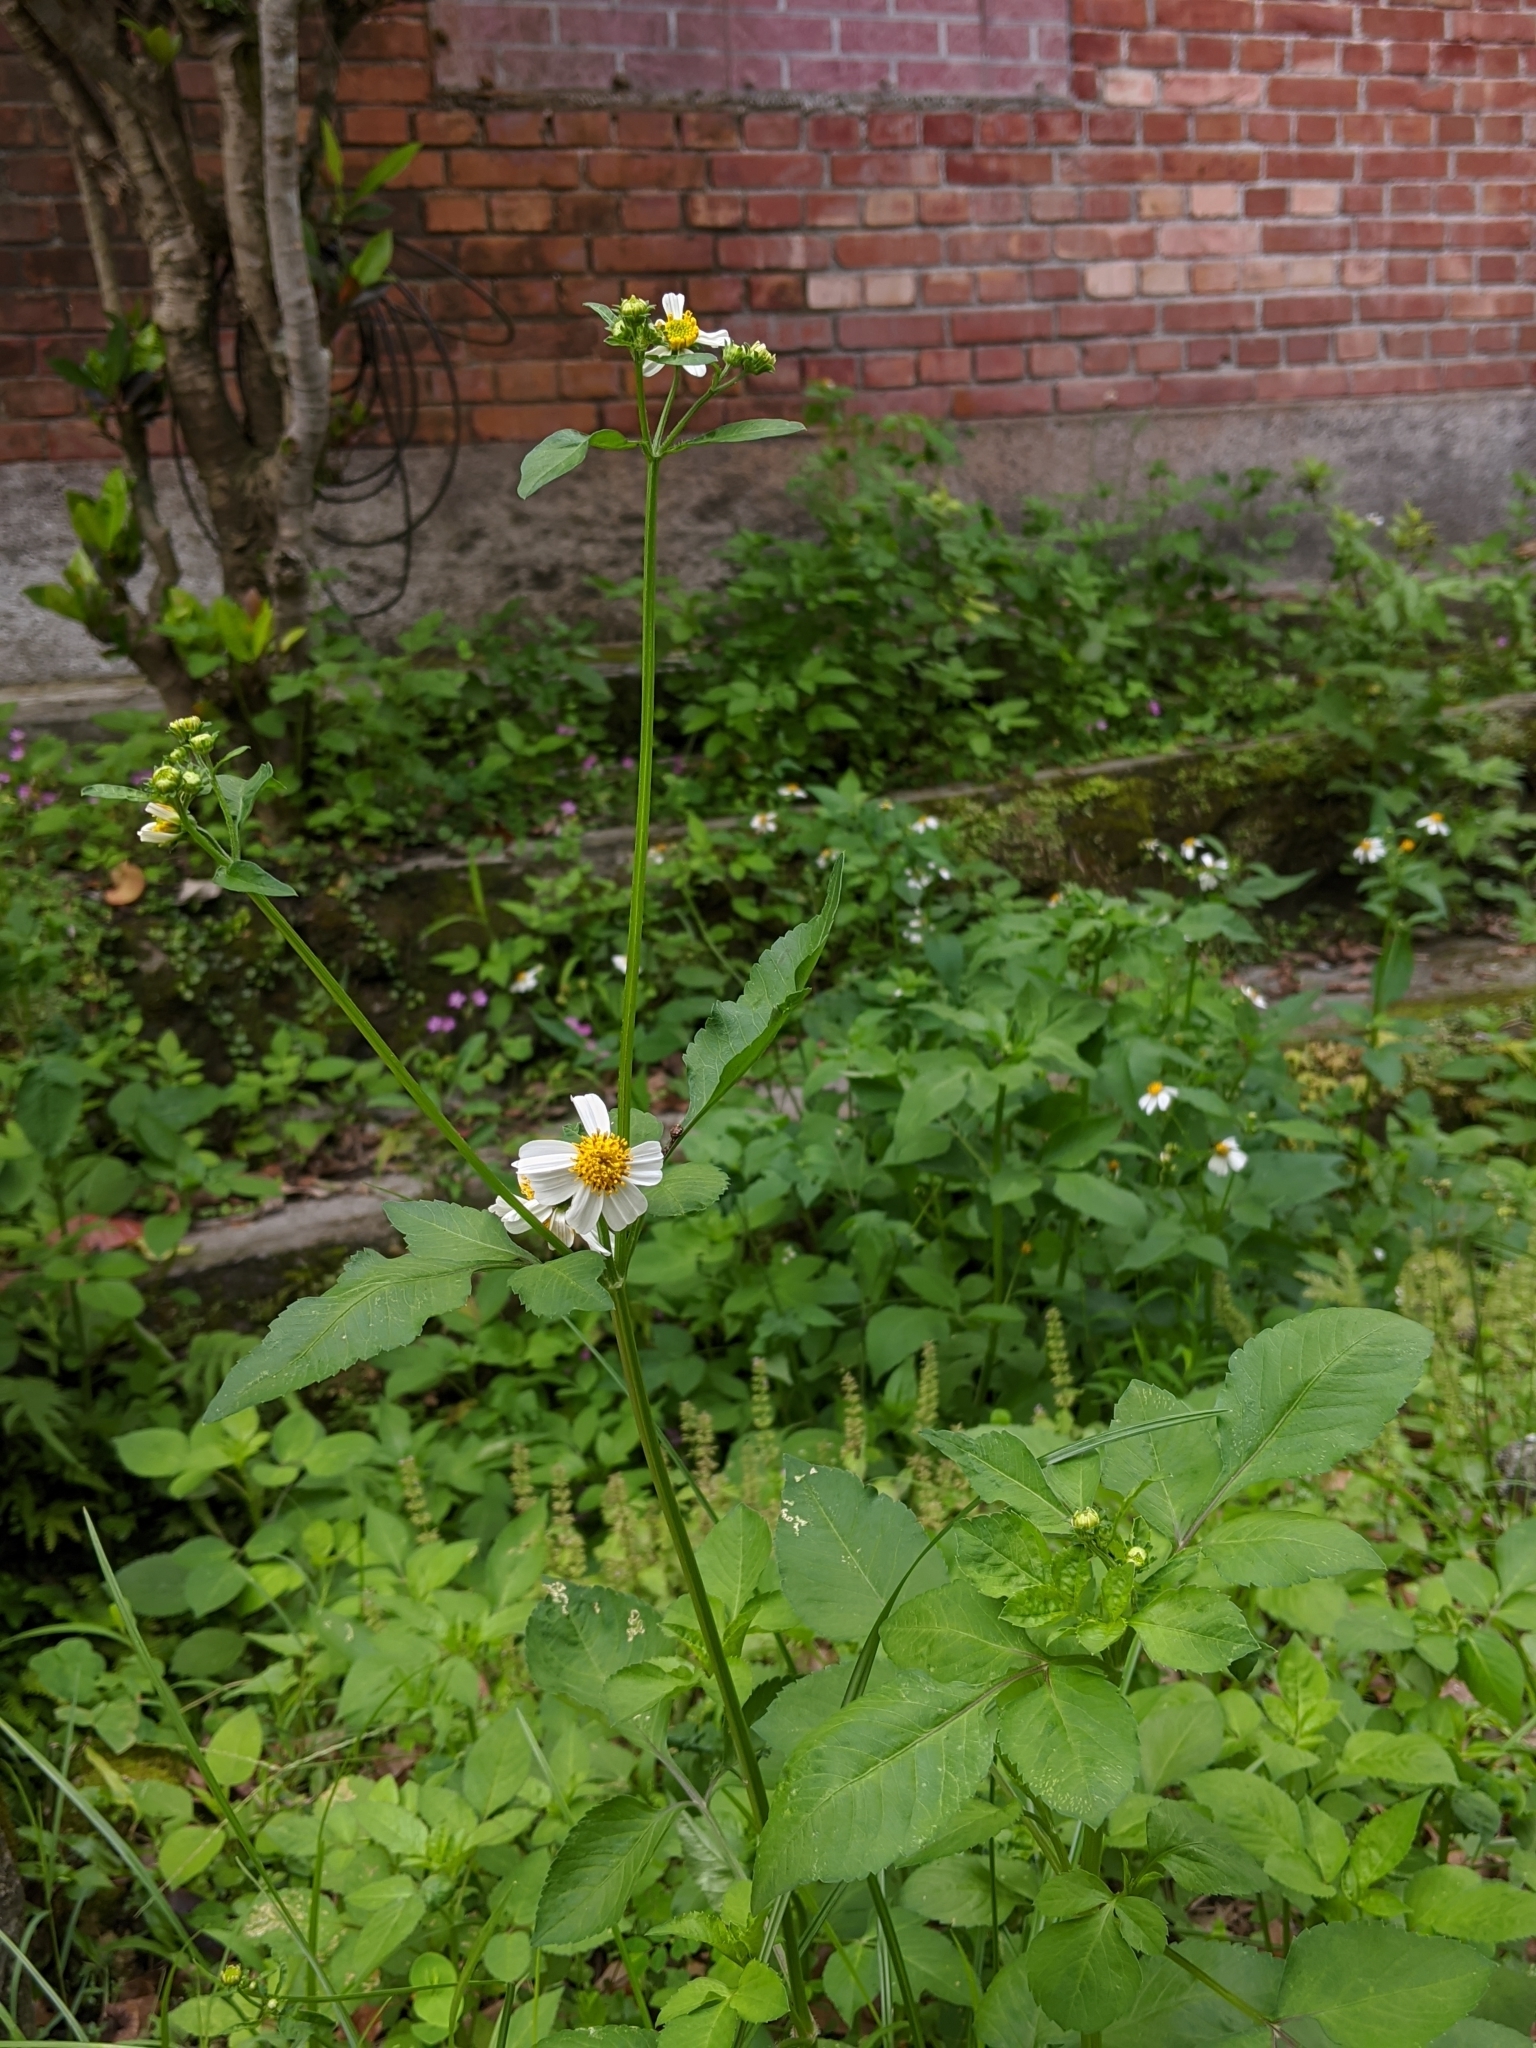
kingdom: Plantae
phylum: Tracheophyta
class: Magnoliopsida
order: Asterales
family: Asteraceae
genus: Bidens
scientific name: Bidens alba
